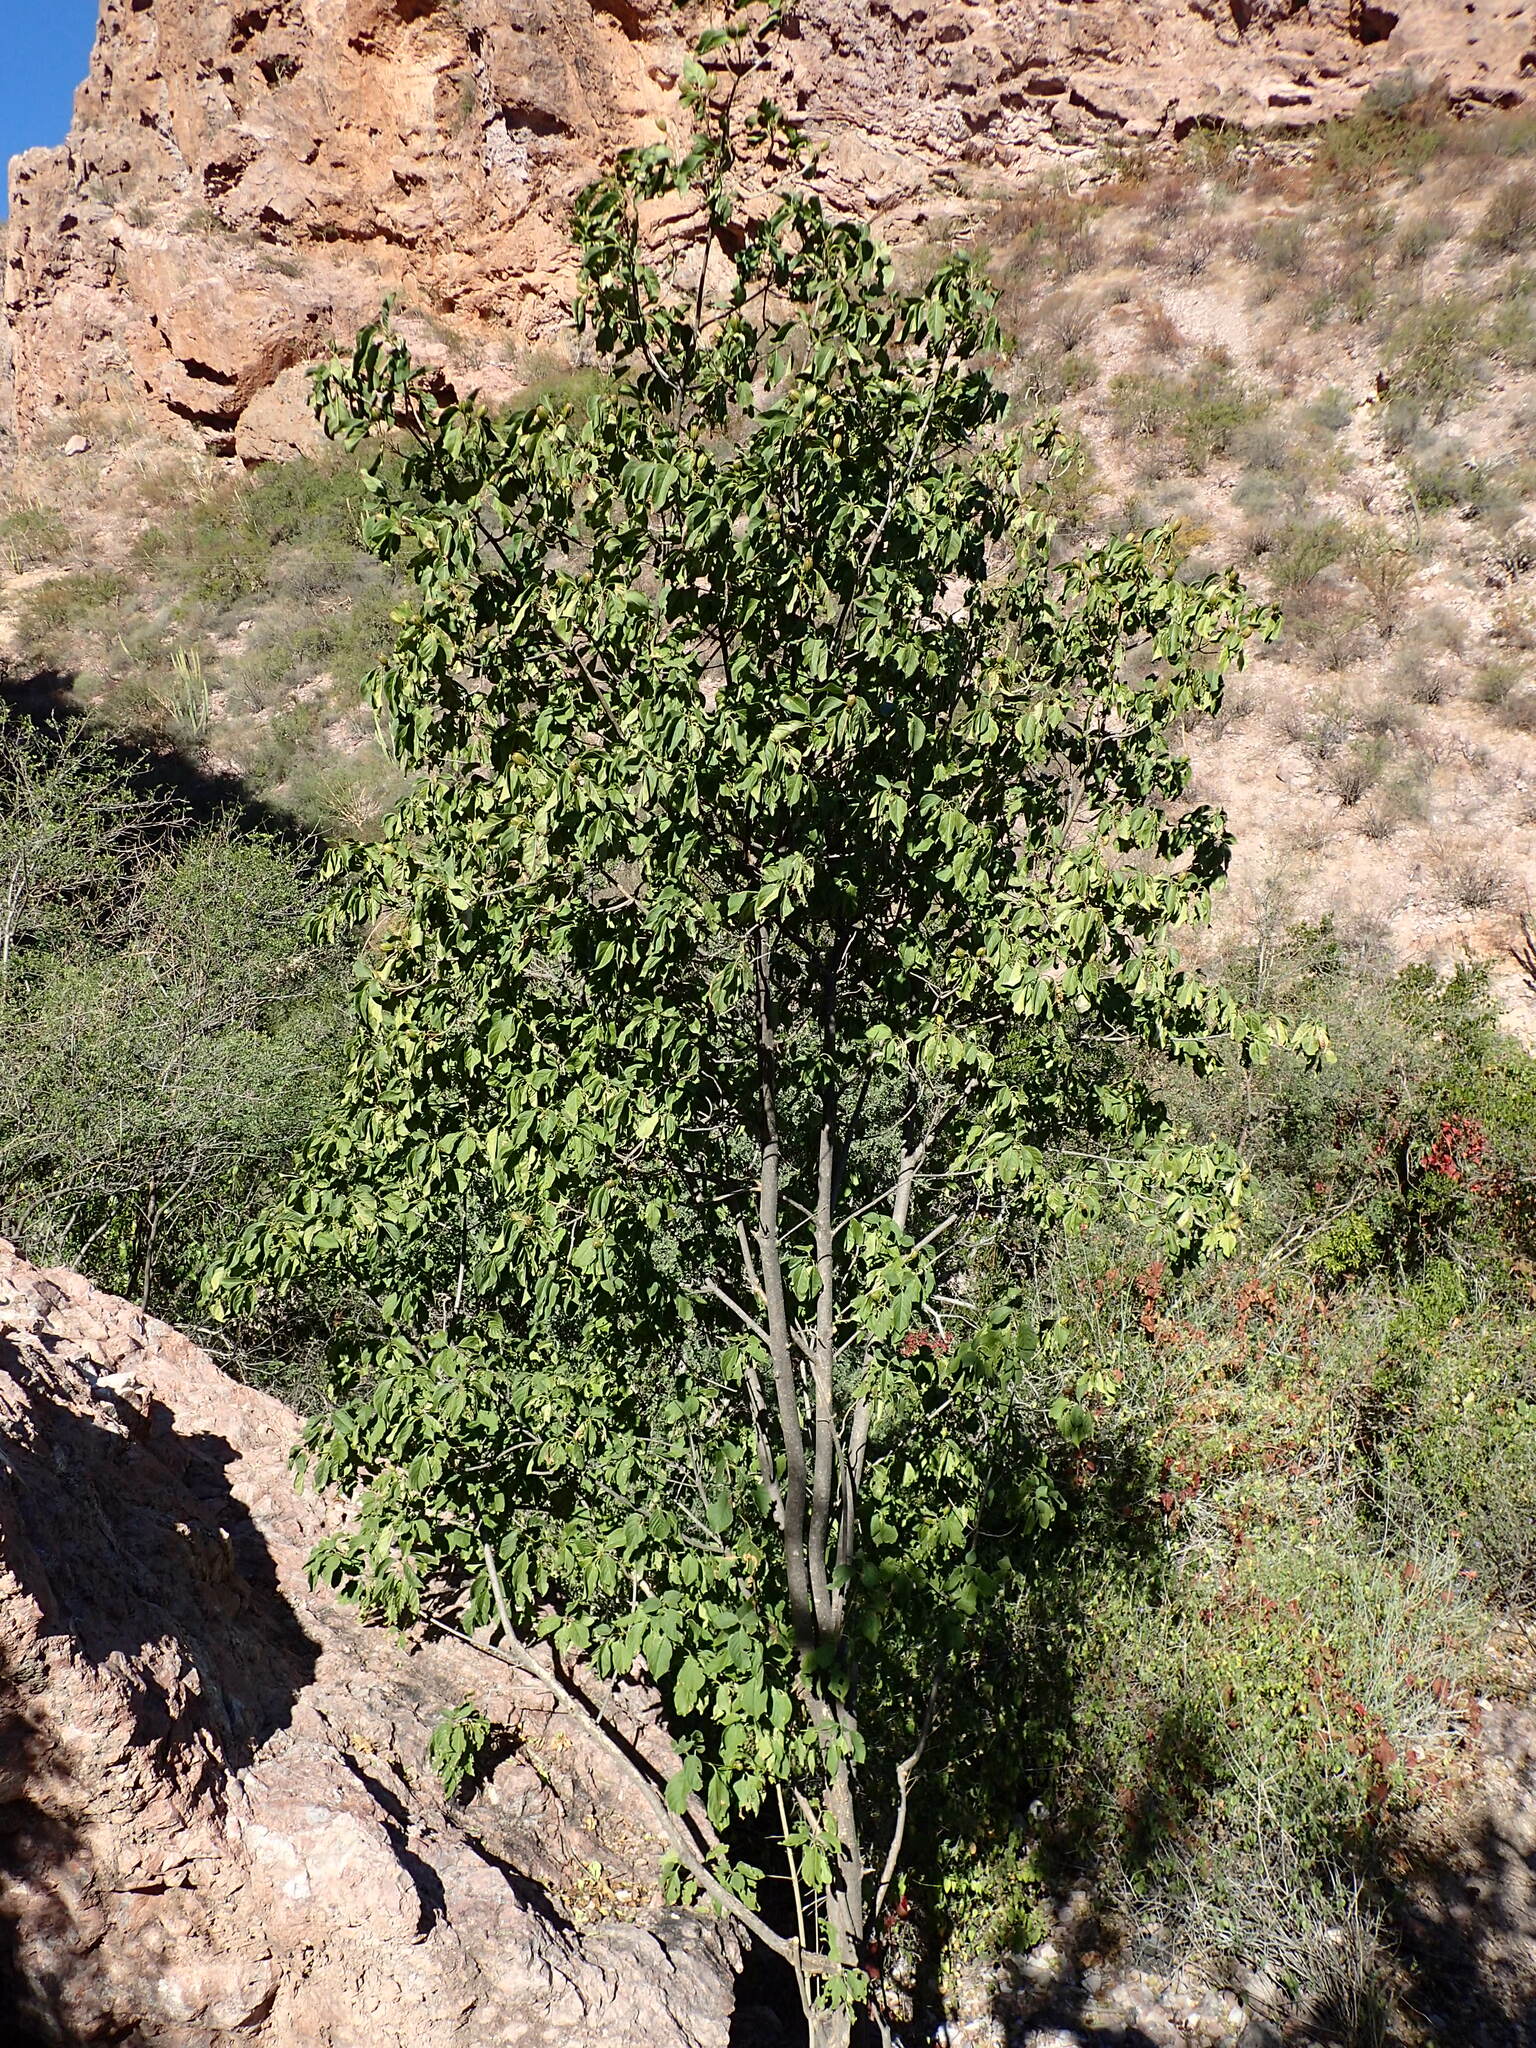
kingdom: Plantae
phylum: Tracheophyta
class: Magnoliopsida
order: Gentianales
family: Rubiaceae
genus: Hintonia
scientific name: Hintonia latiflora
